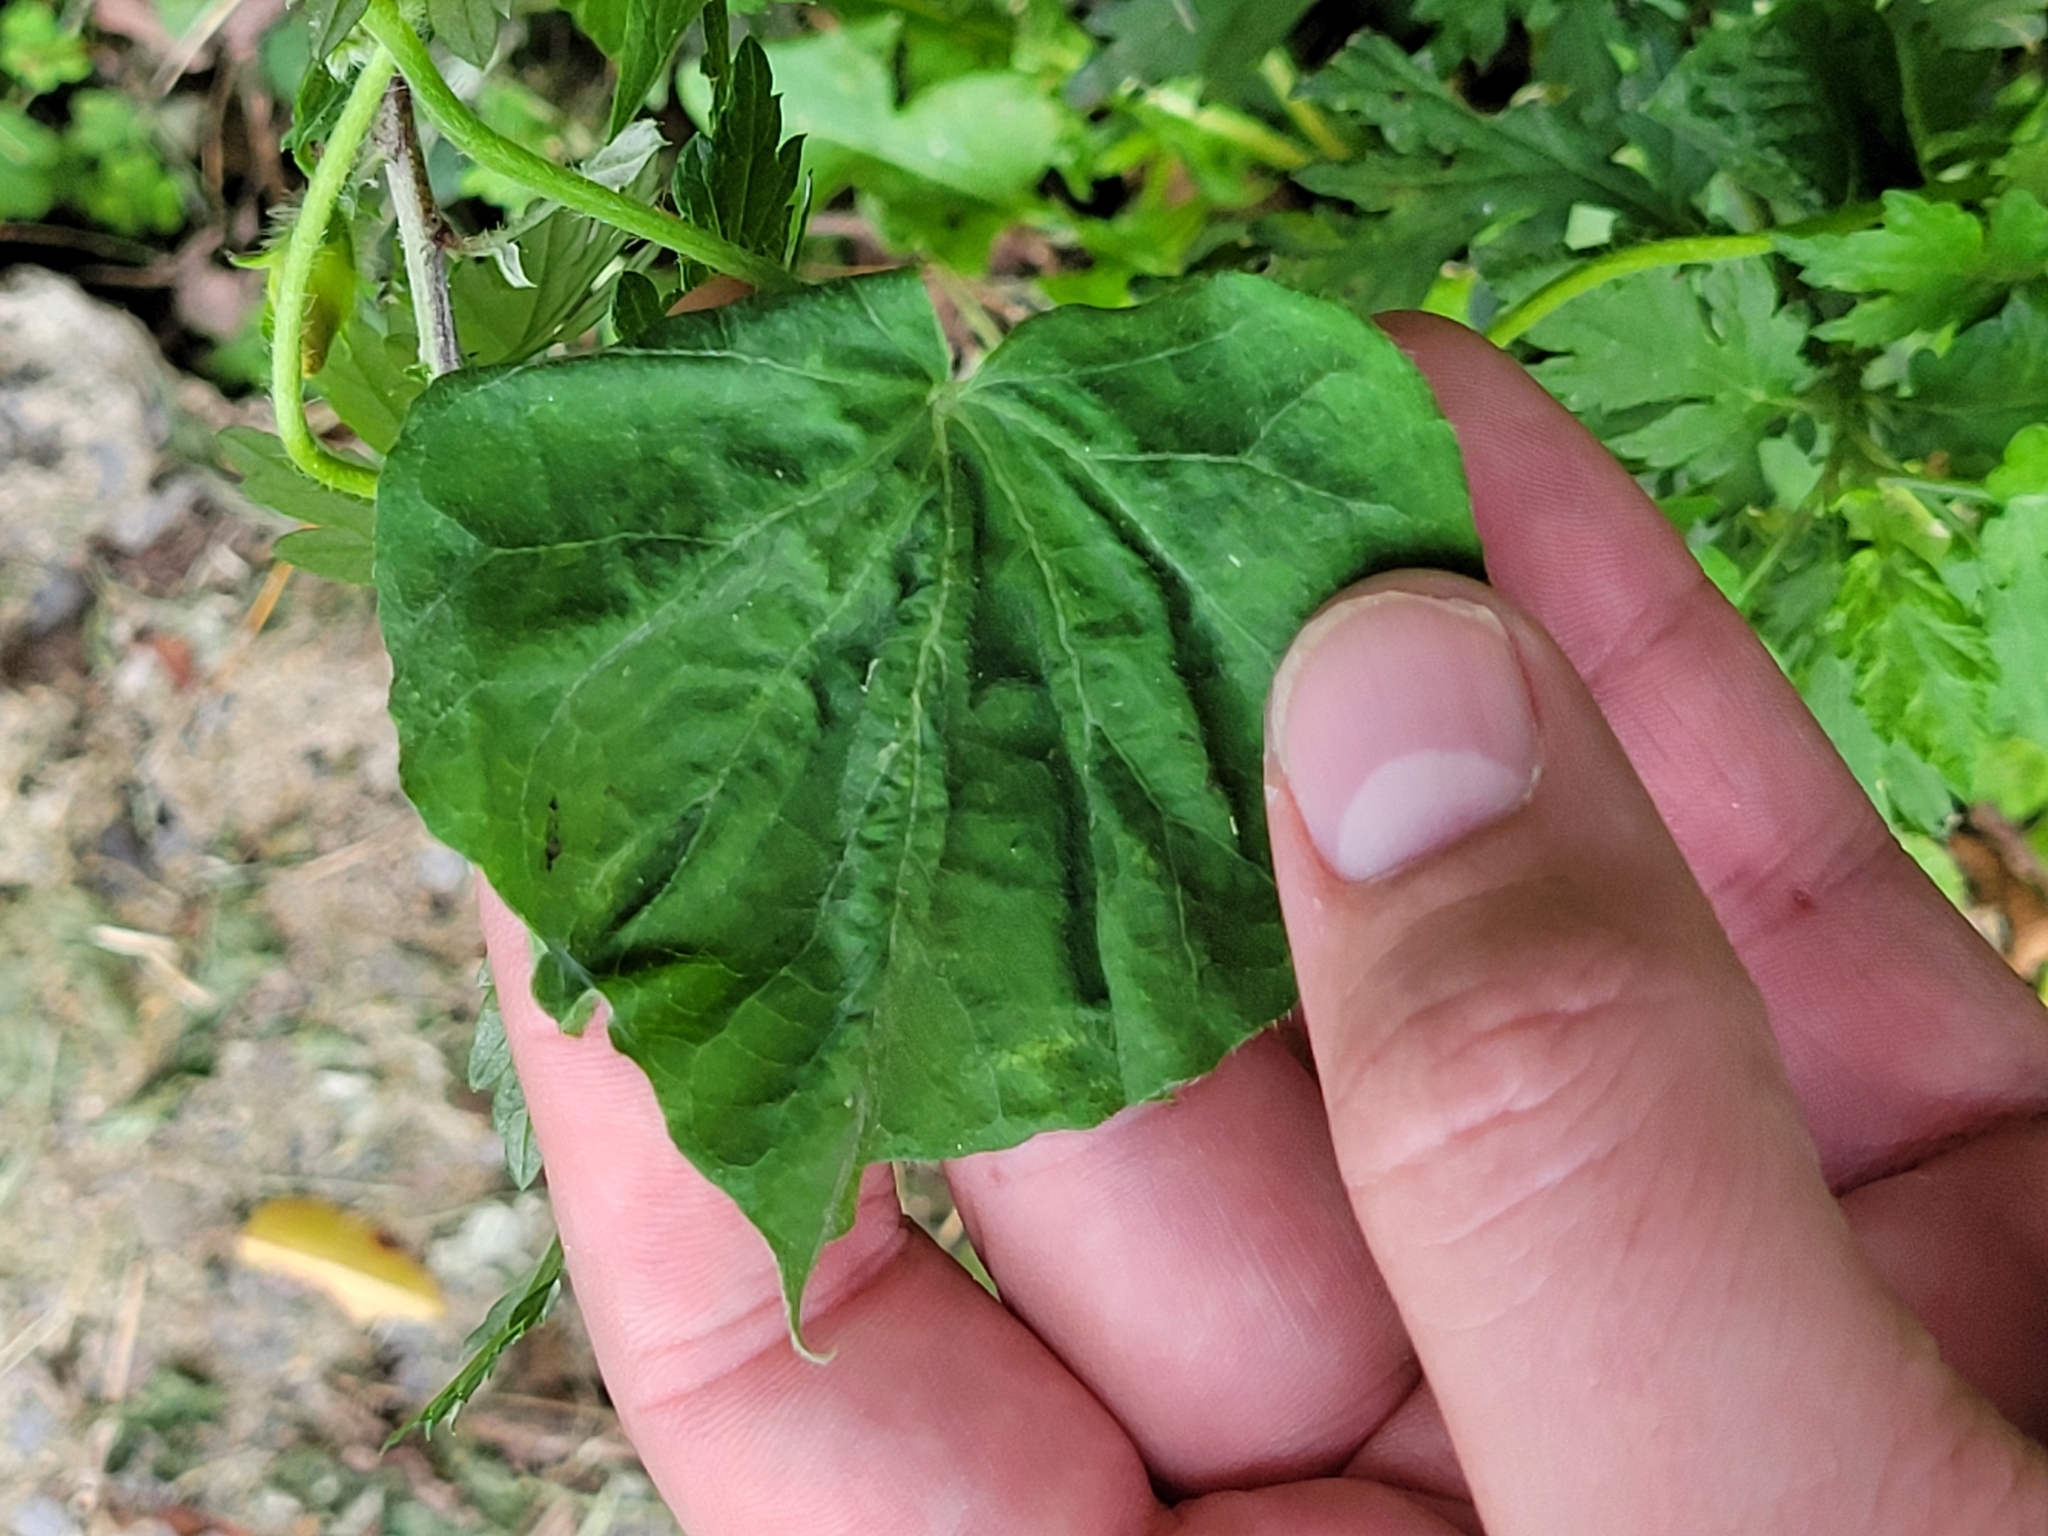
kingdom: Plantae
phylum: Tracheophyta
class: Magnoliopsida
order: Solanales
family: Convolvulaceae
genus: Ipomoea
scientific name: Ipomoea purpurea
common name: Common morning-glory
